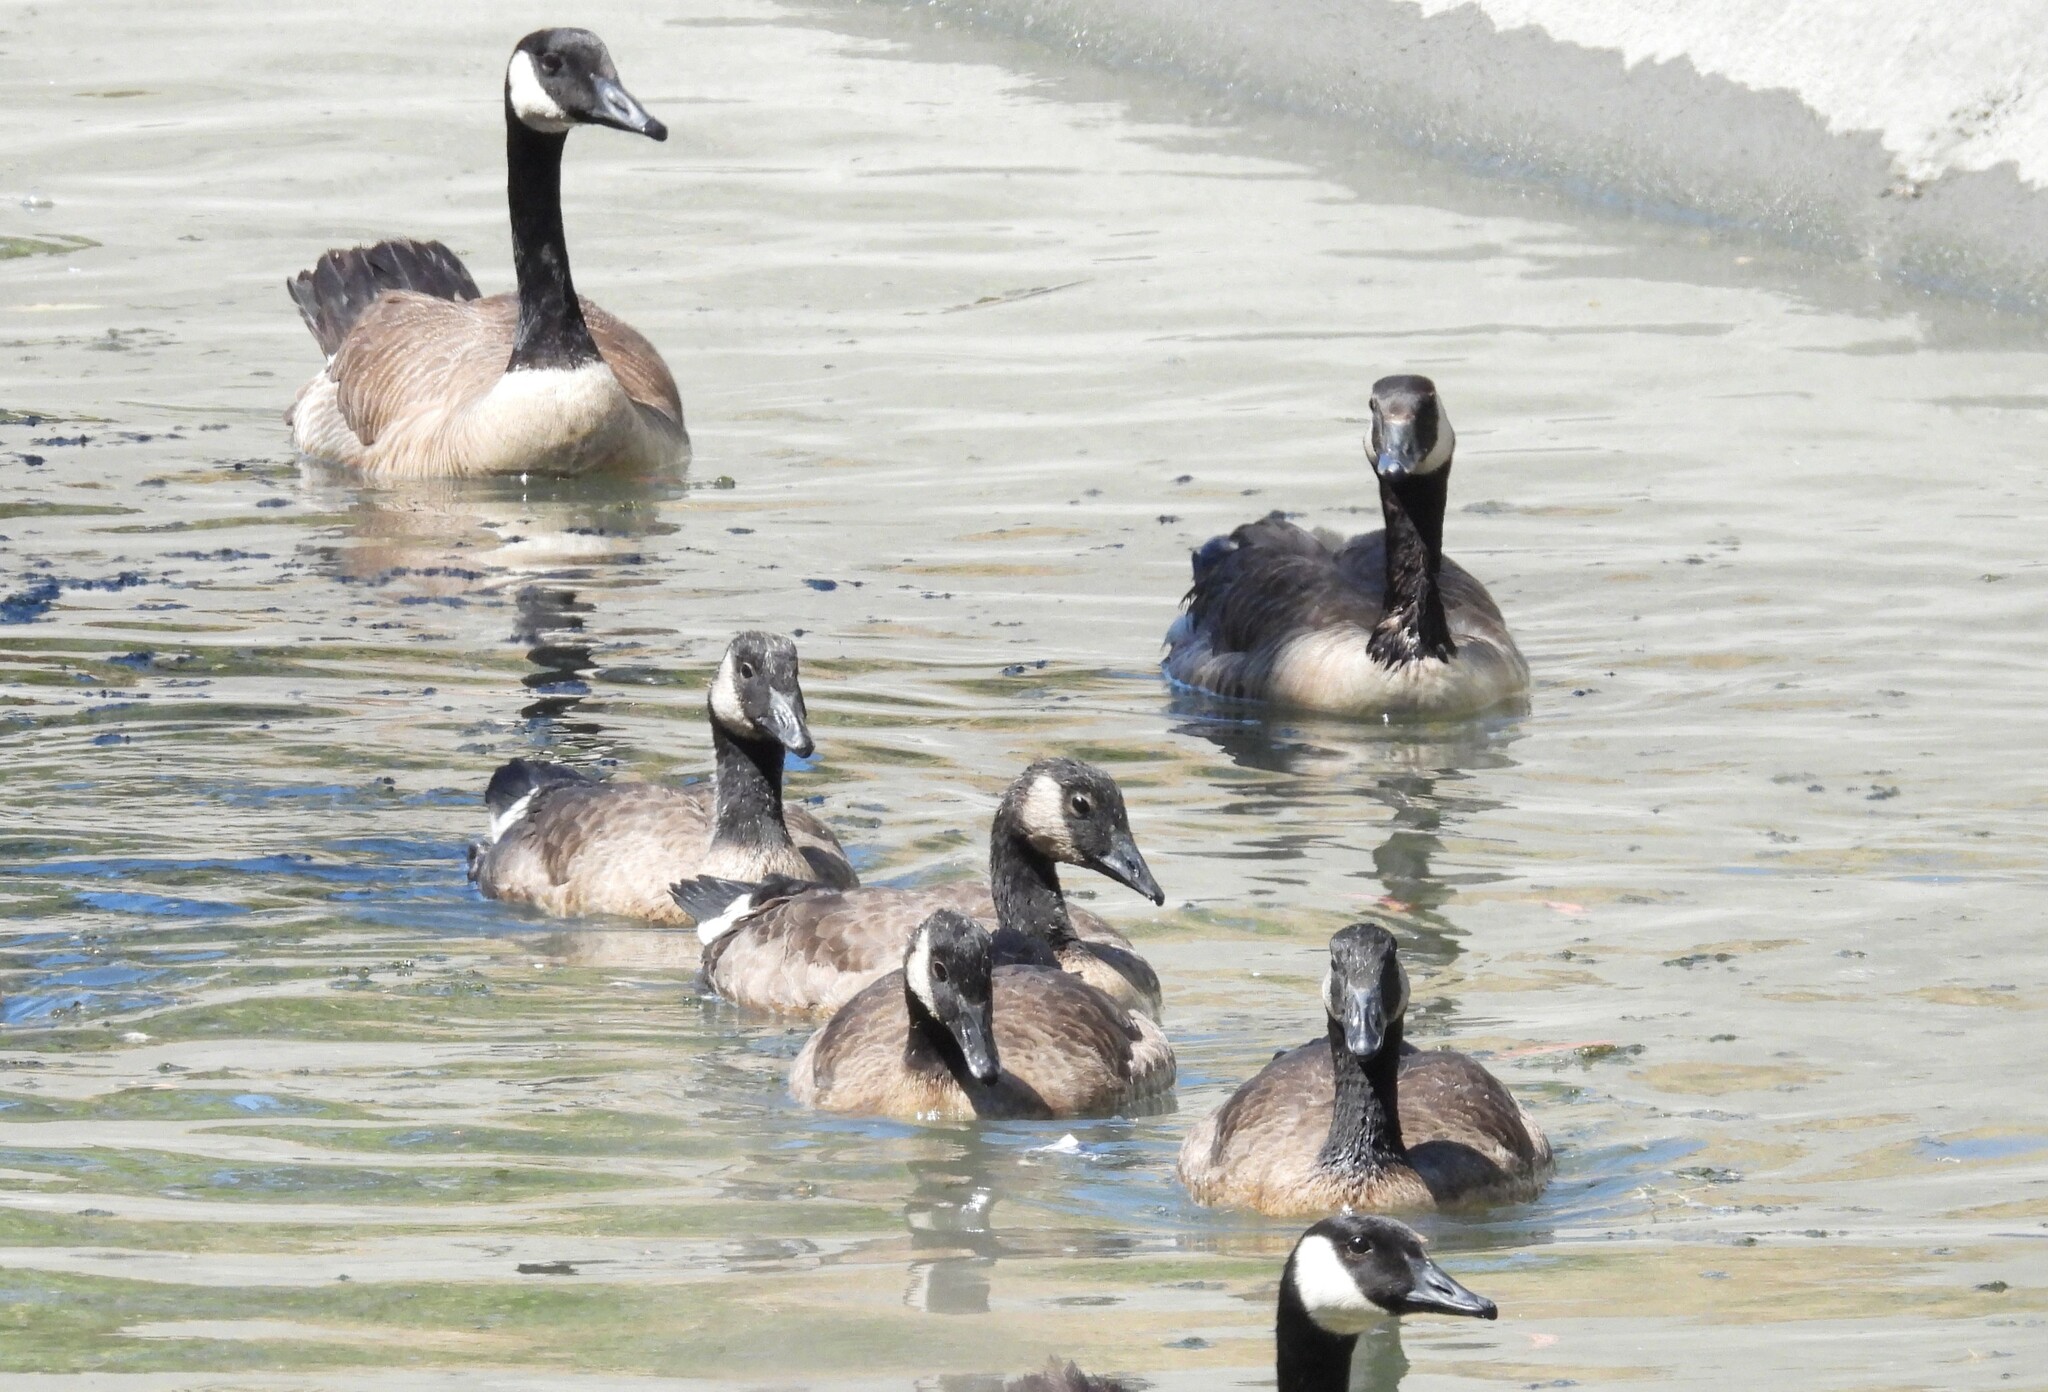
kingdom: Animalia
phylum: Chordata
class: Aves
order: Anseriformes
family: Anatidae
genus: Branta
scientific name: Branta canadensis
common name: Canada goose
